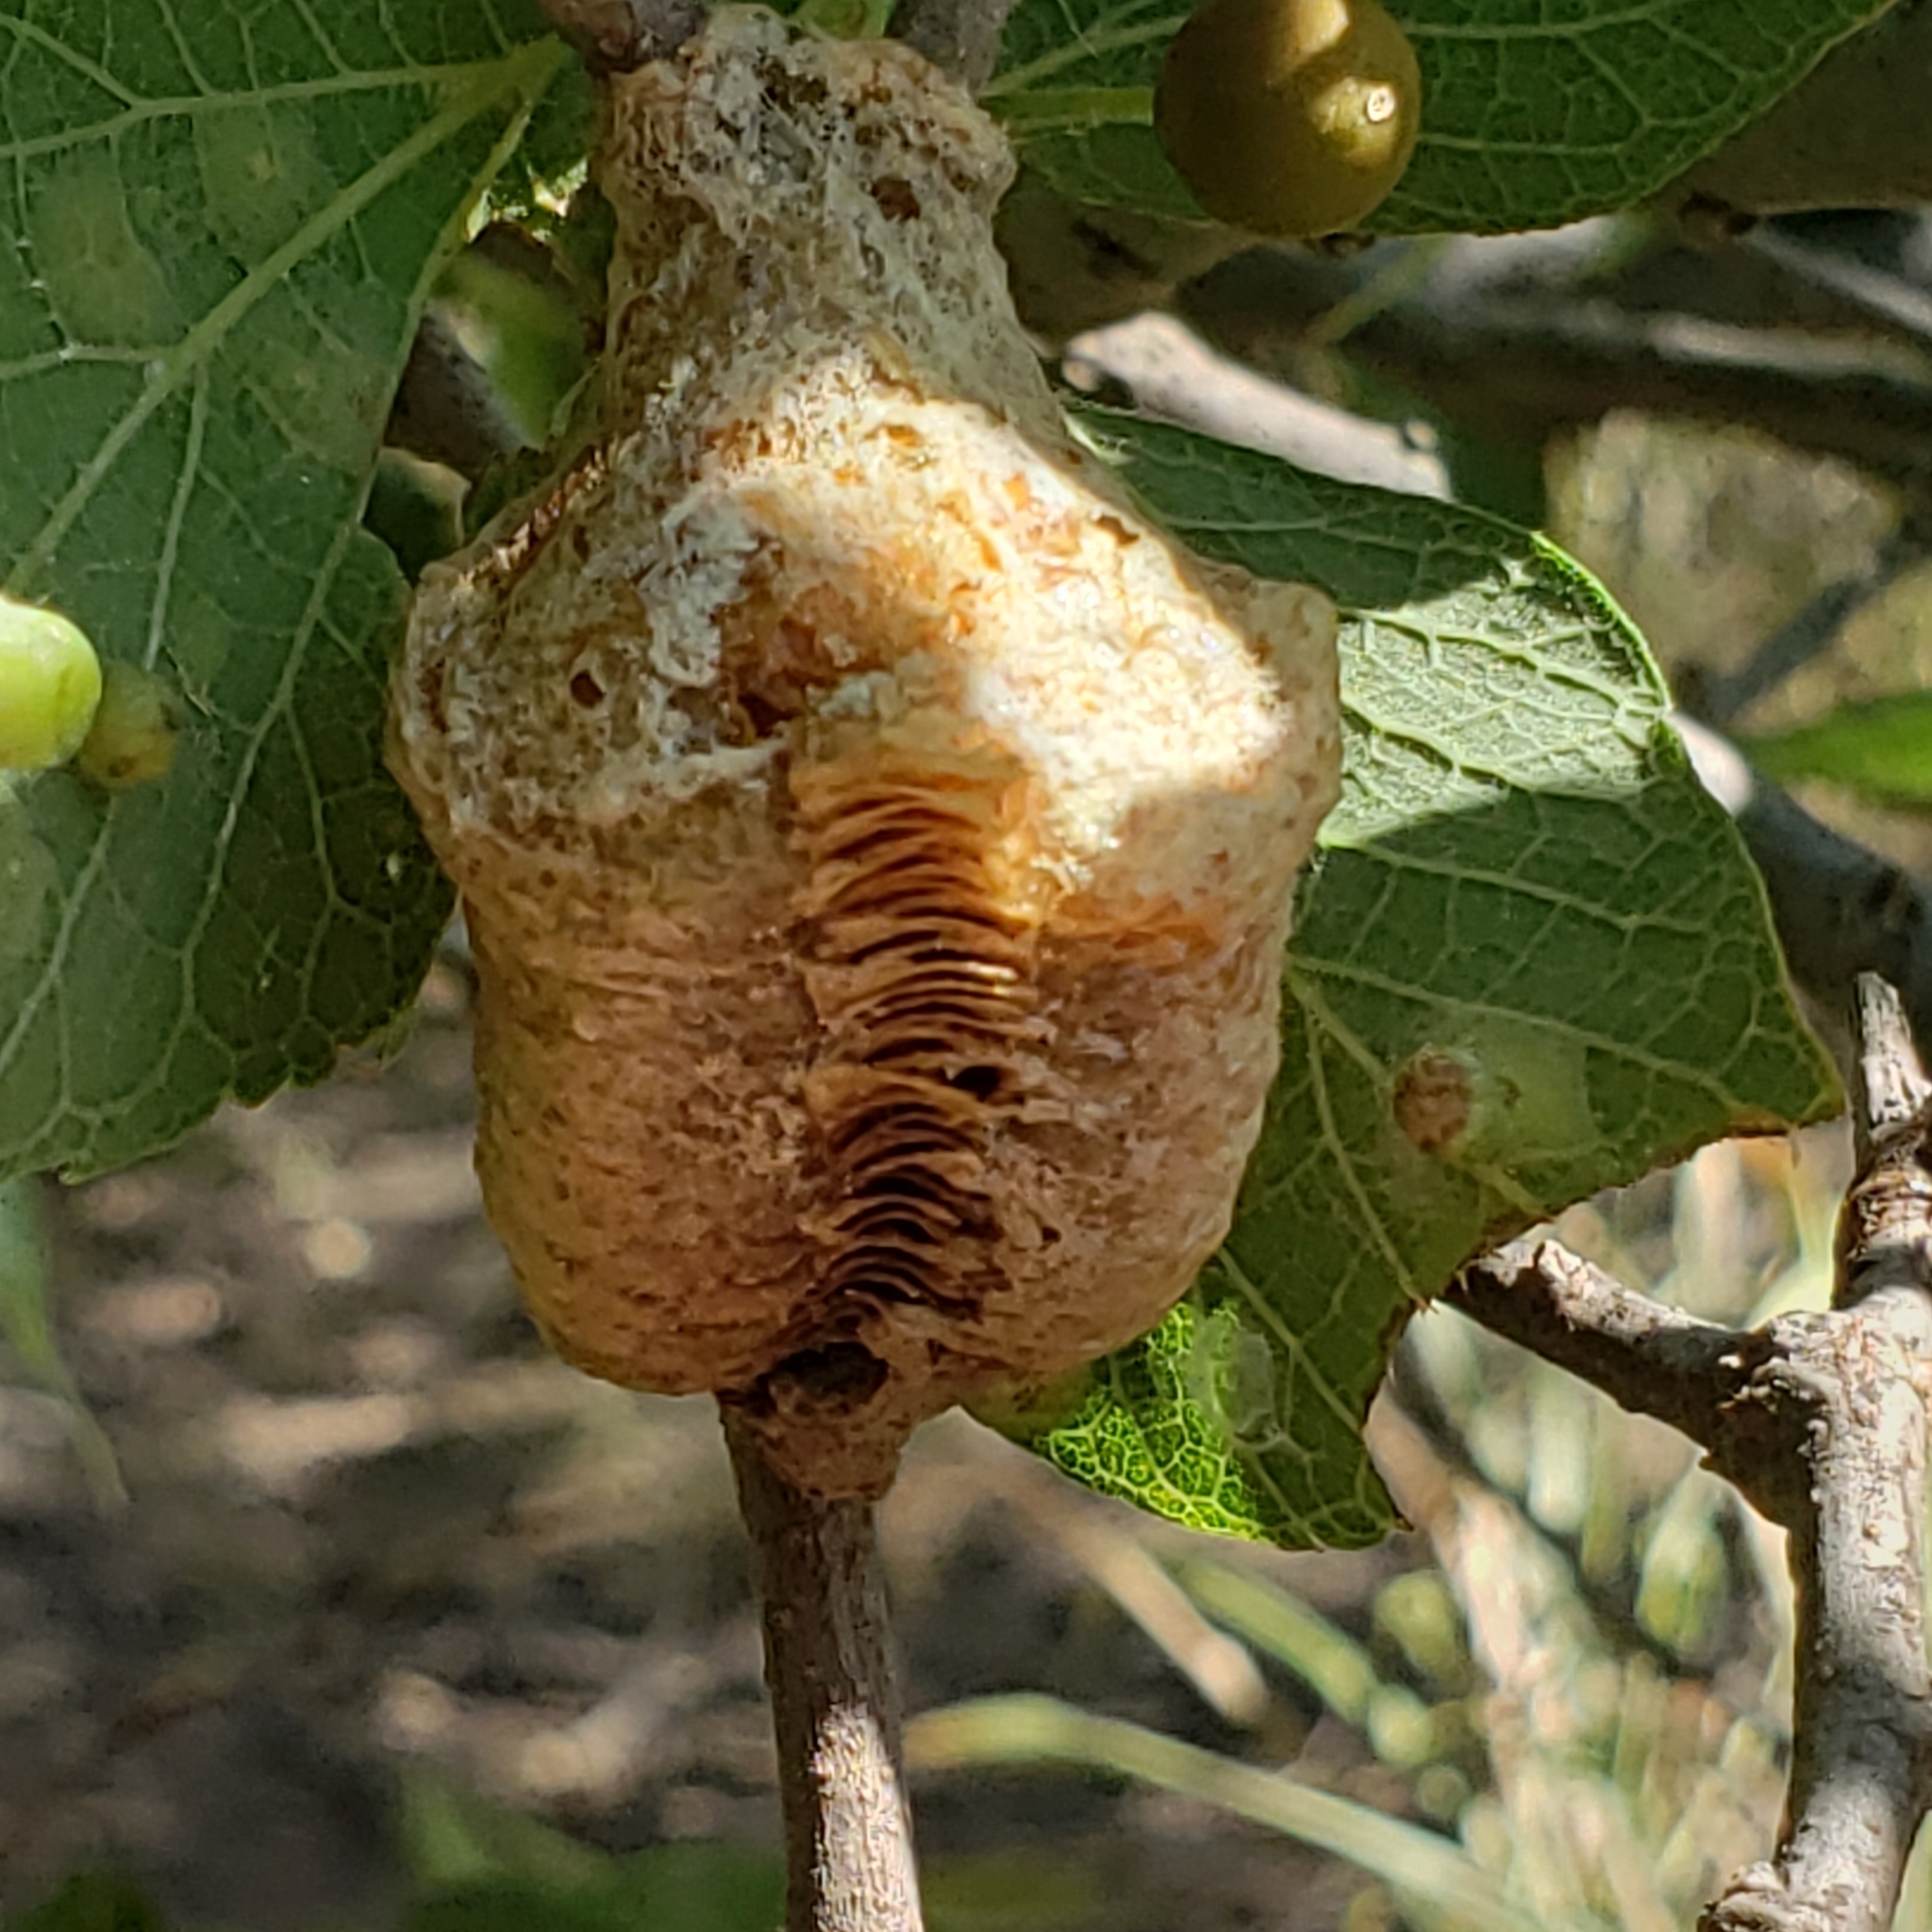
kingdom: Animalia
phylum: Arthropoda
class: Insecta
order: Mantodea
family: Mantidae
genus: Tenodera
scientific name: Tenodera sinensis
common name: Chinese mantis
